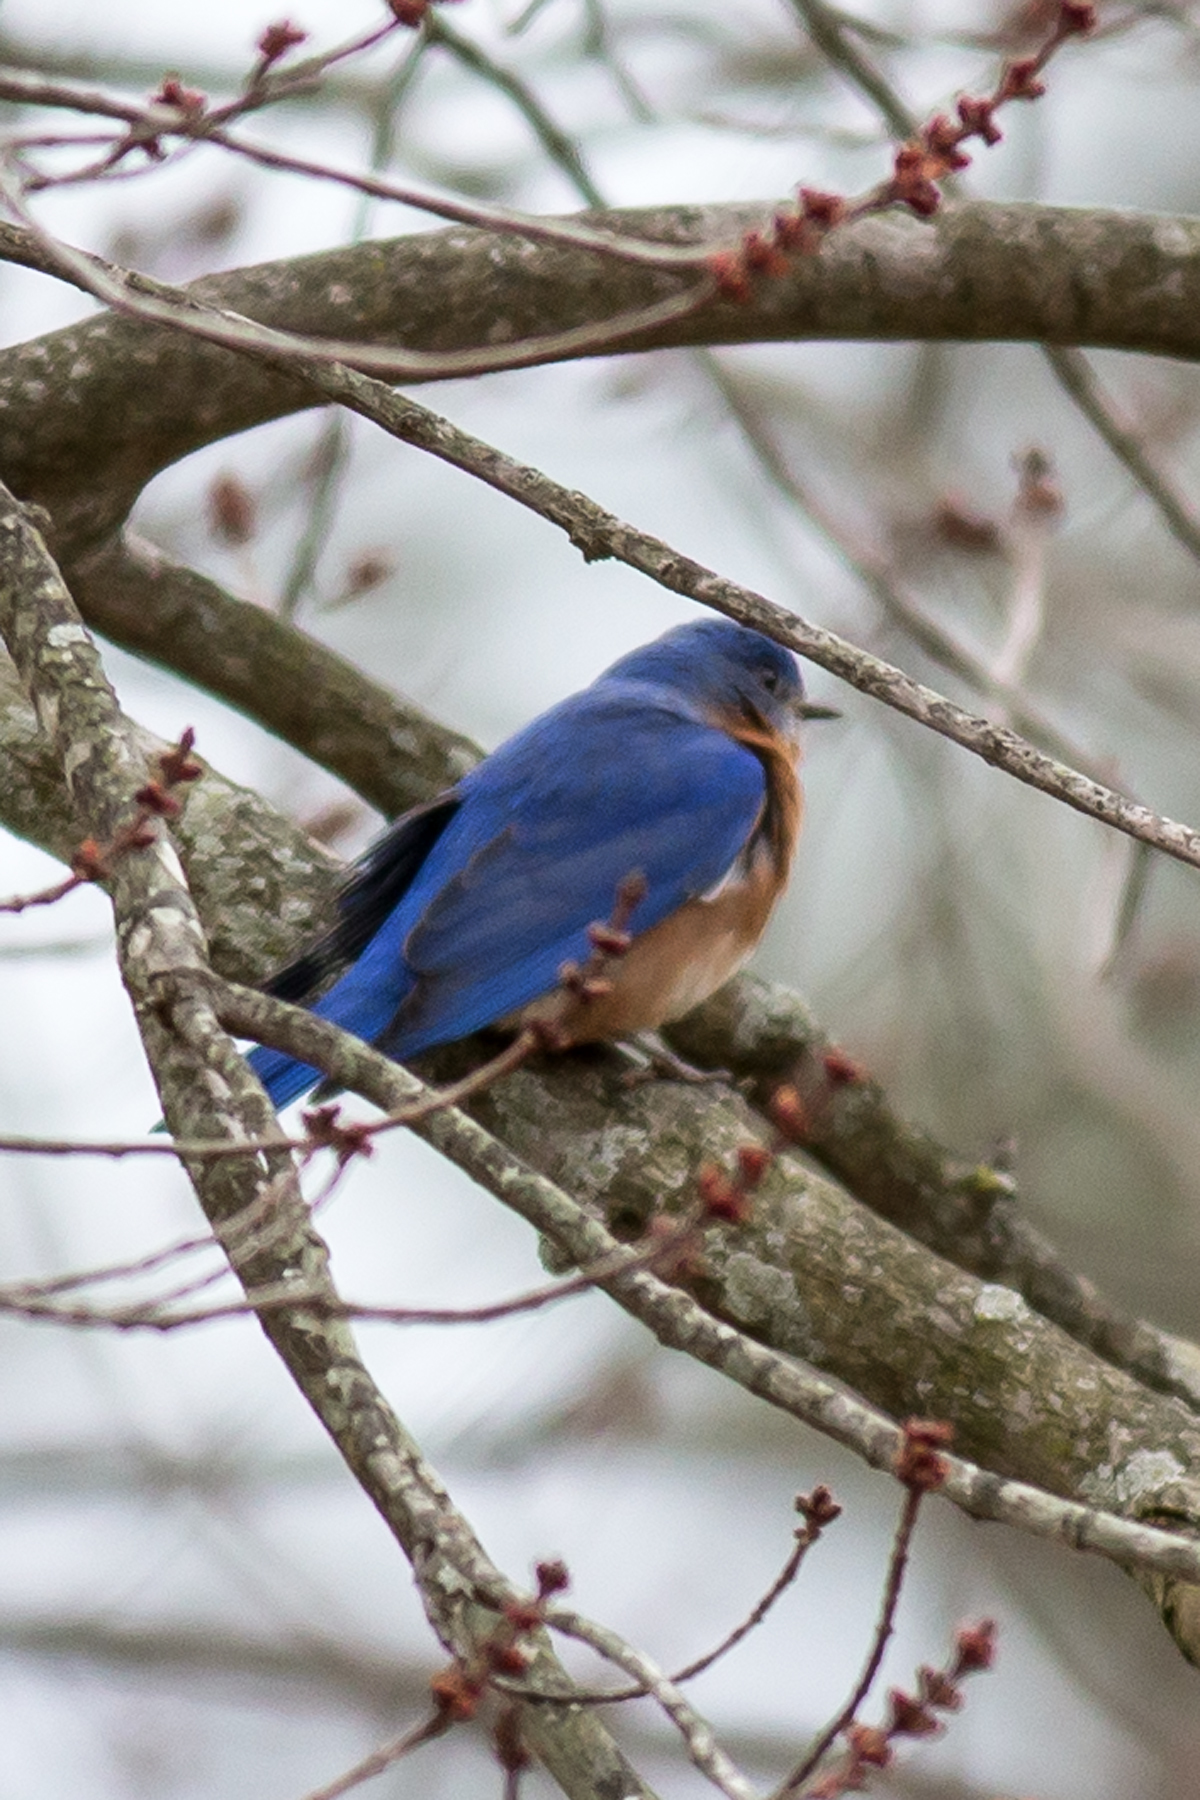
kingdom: Animalia
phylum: Chordata
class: Aves
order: Passeriformes
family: Turdidae
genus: Sialia
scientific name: Sialia sialis
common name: Eastern bluebird
